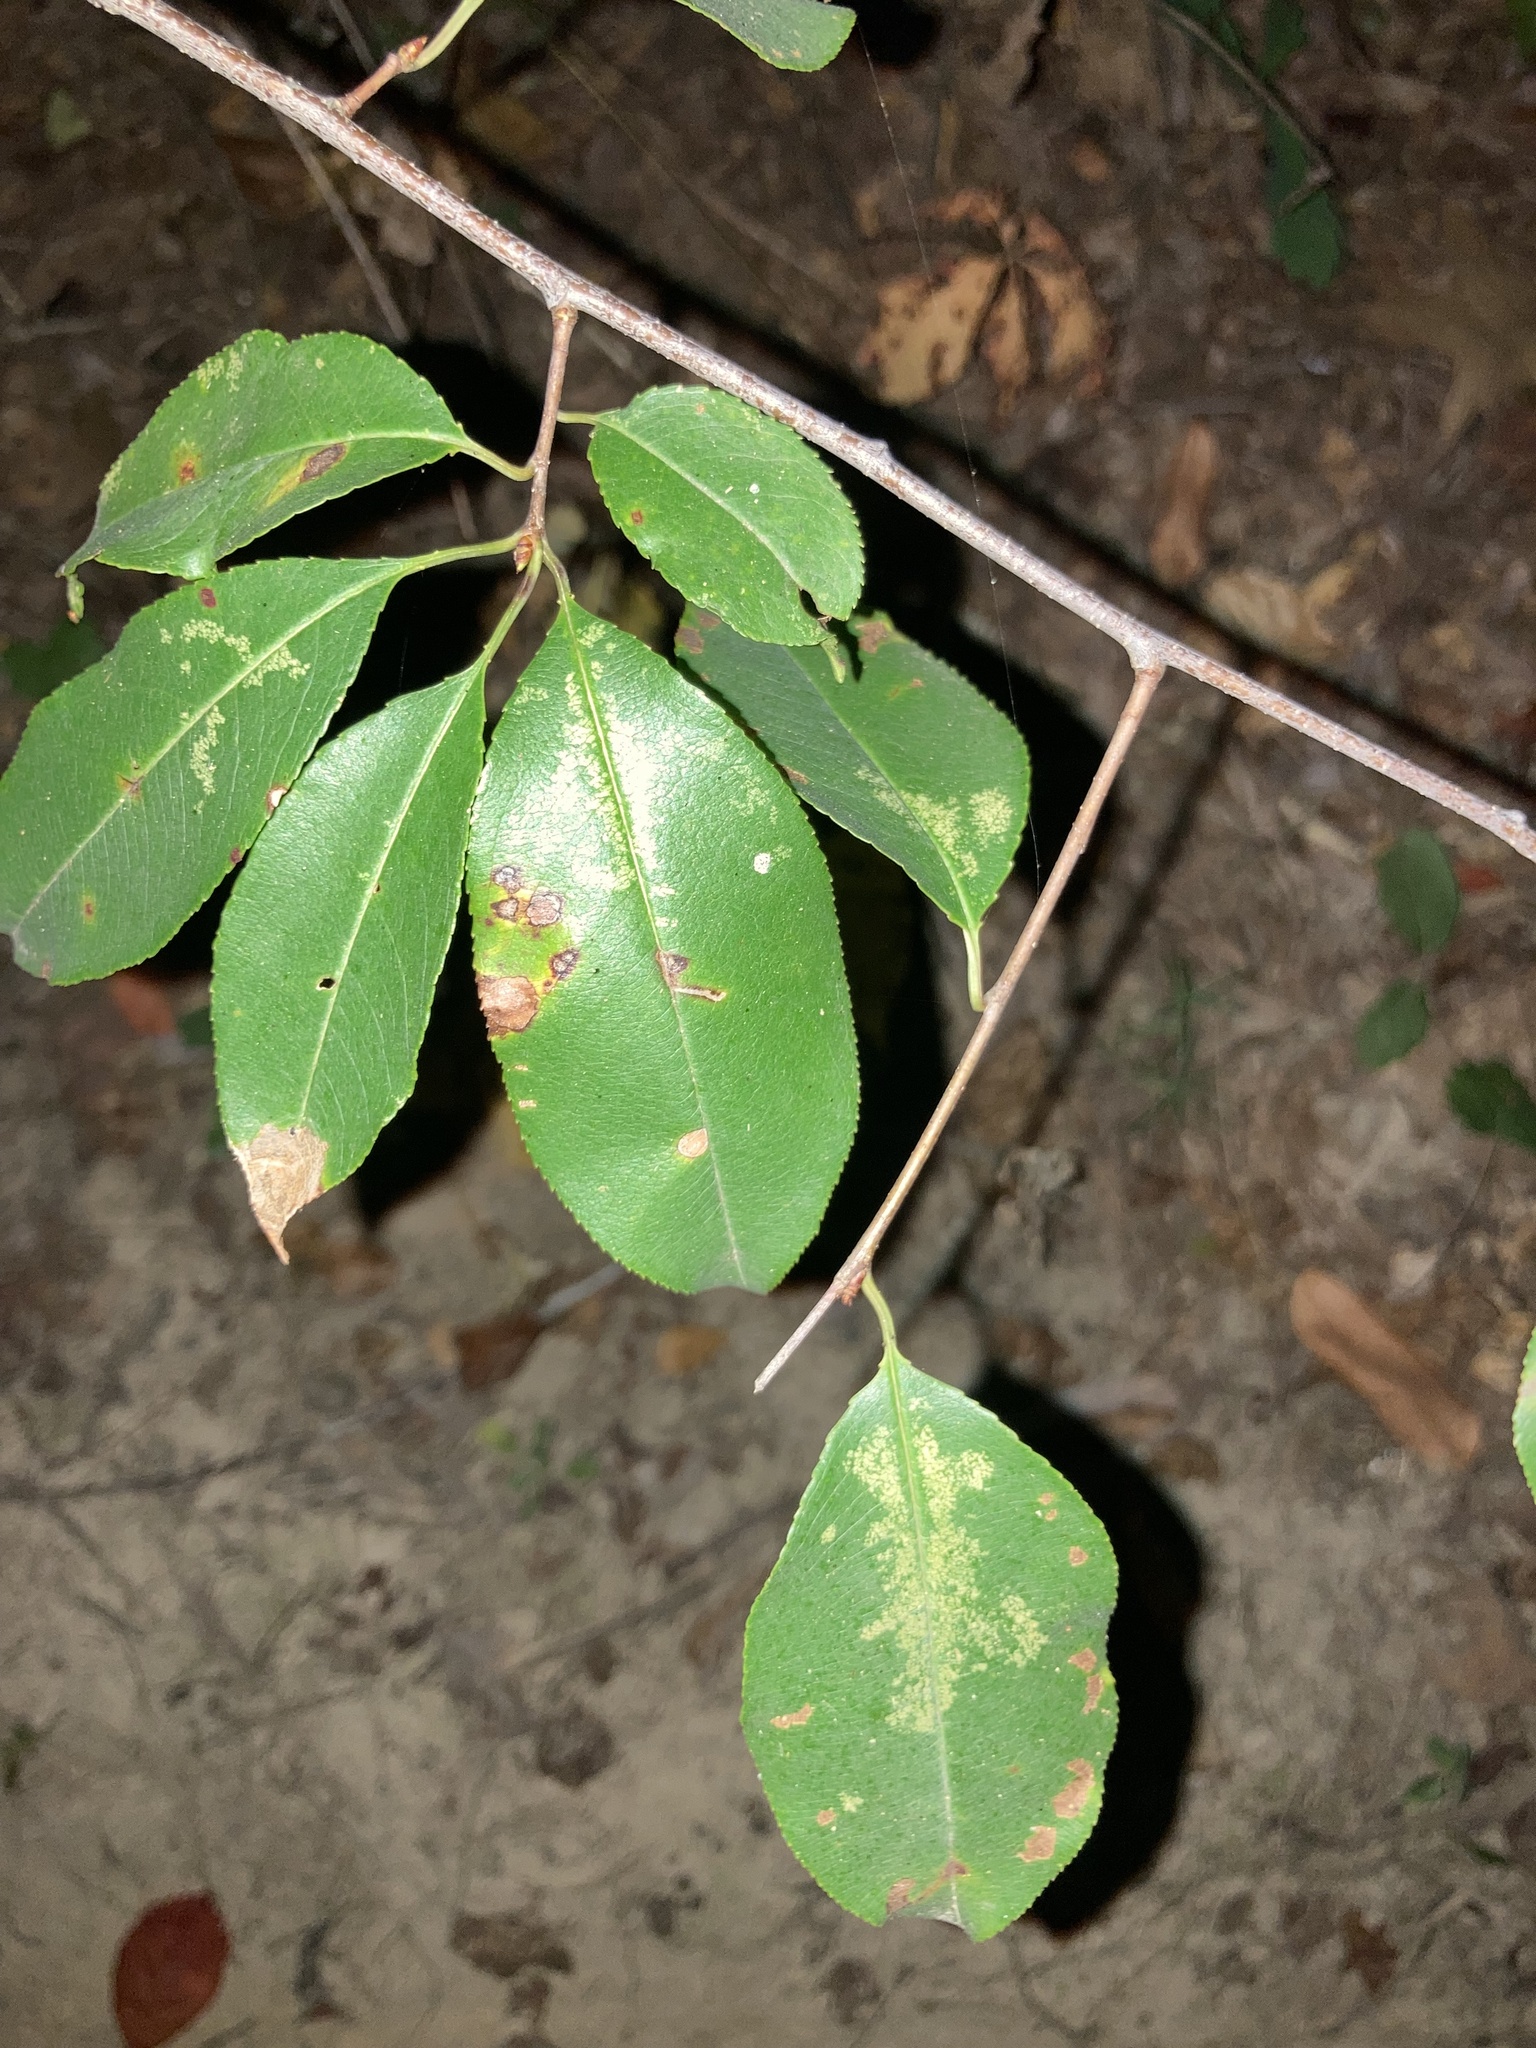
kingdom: Plantae
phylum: Tracheophyta
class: Magnoliopsida
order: Rosales
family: Rosaceae
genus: Prunus
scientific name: Prunus serotina
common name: Black cherry
